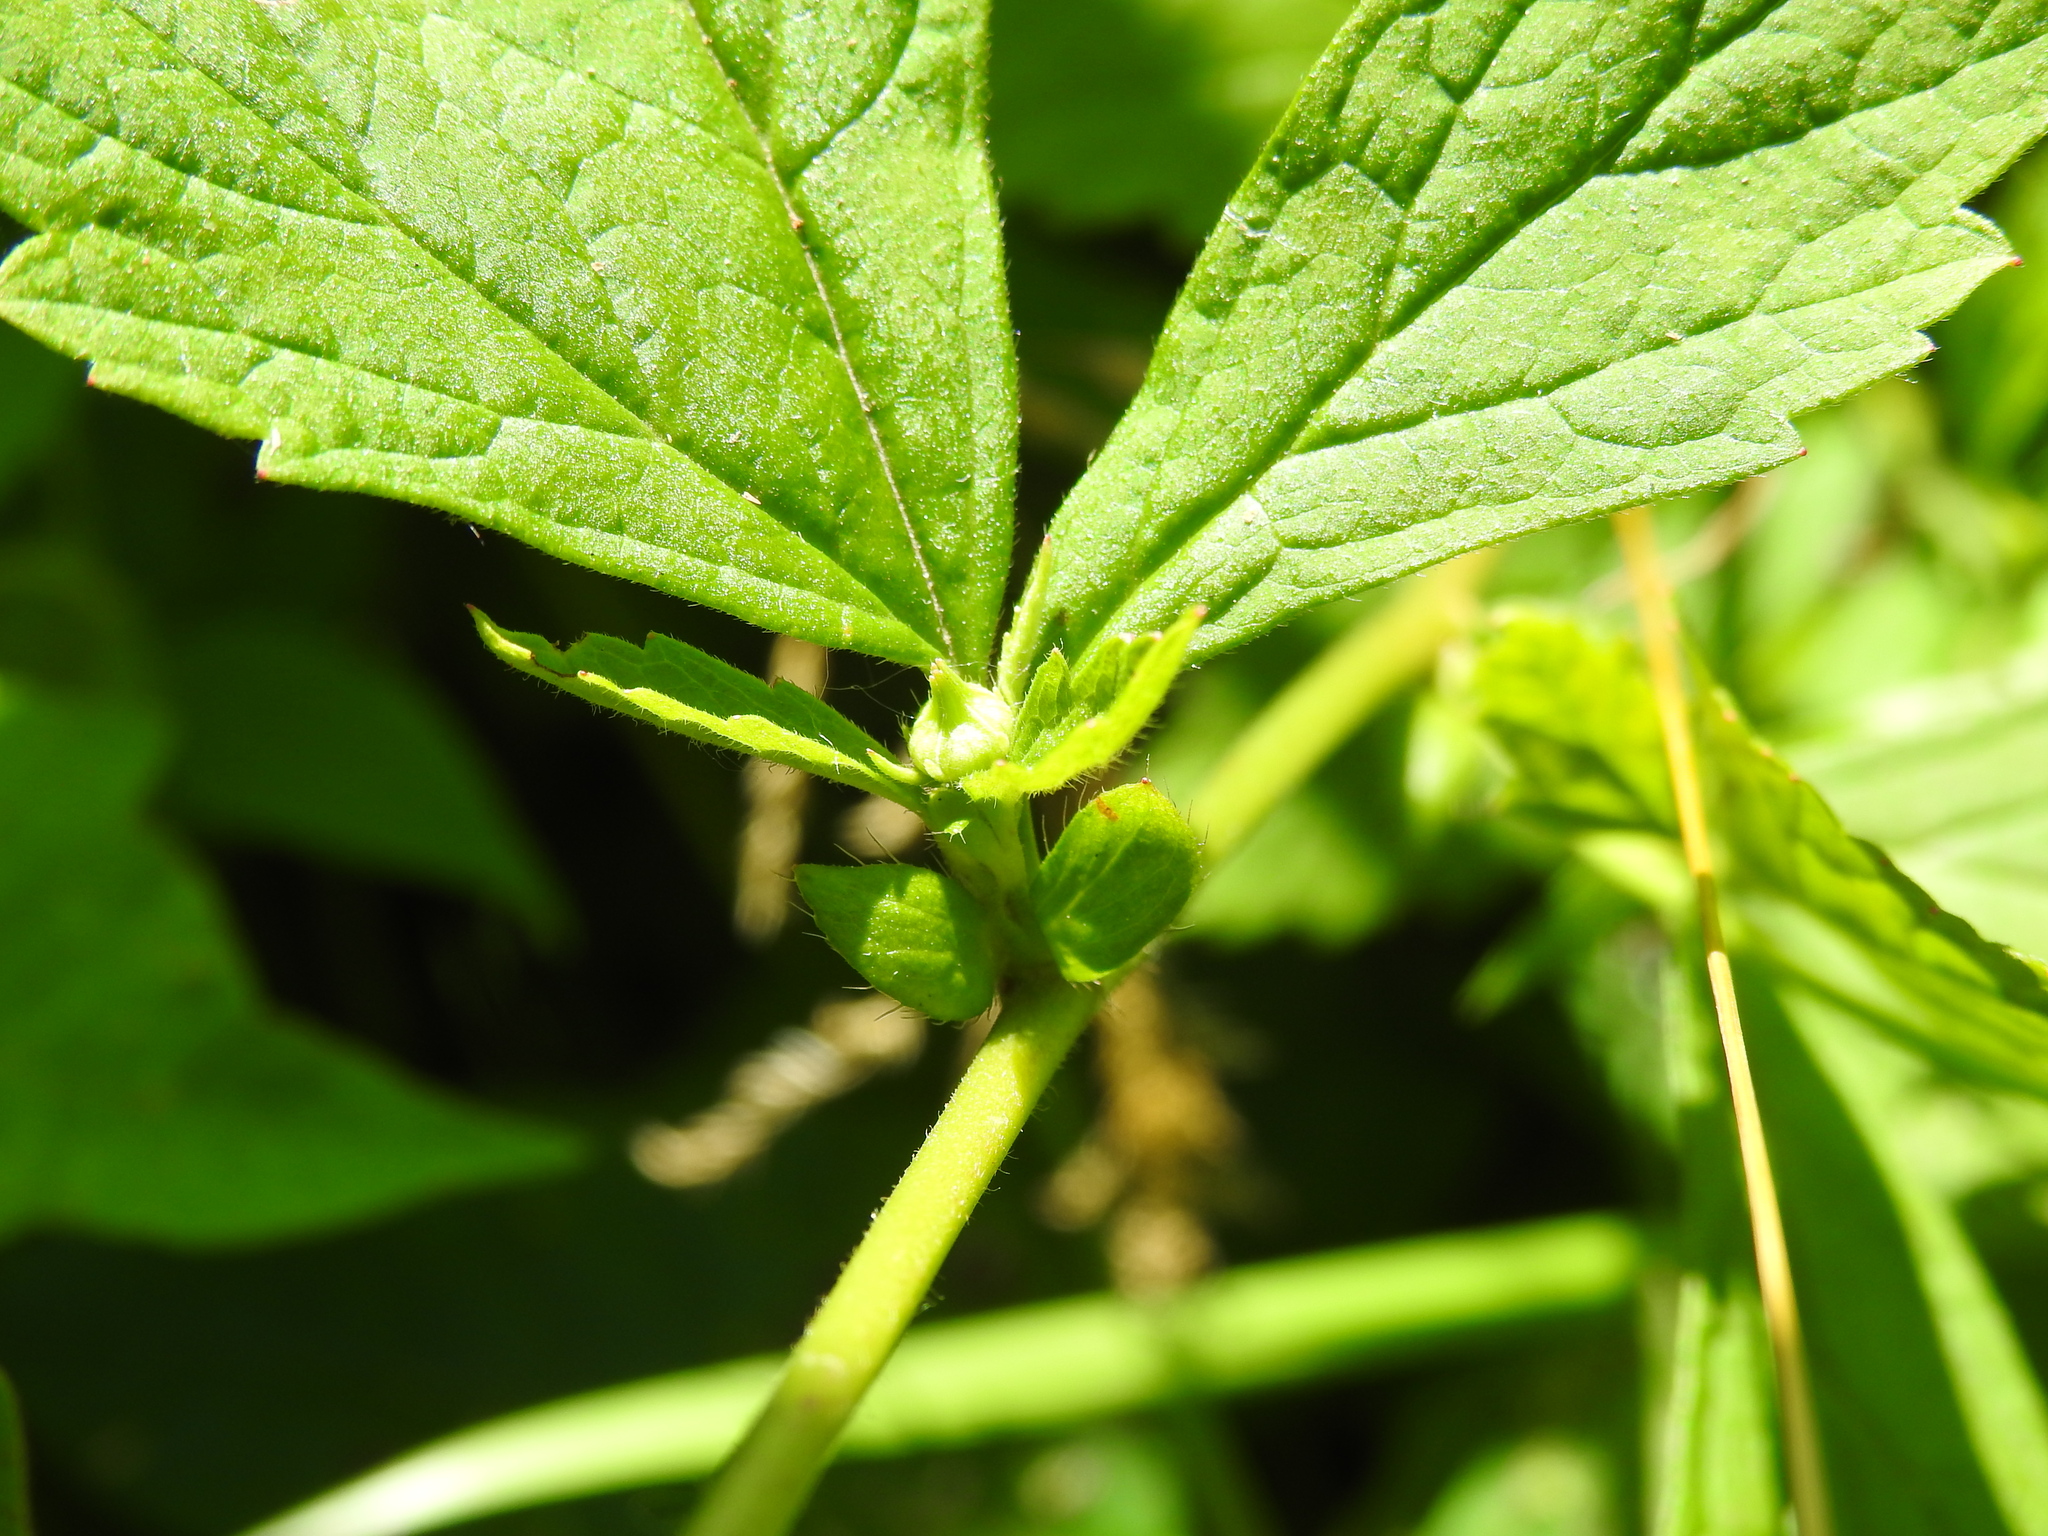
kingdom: Plantae
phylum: Tracheophyta
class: Magnoliopsida
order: Rosales
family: Rosaceae
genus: Geum
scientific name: Geum canadense
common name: White avens
